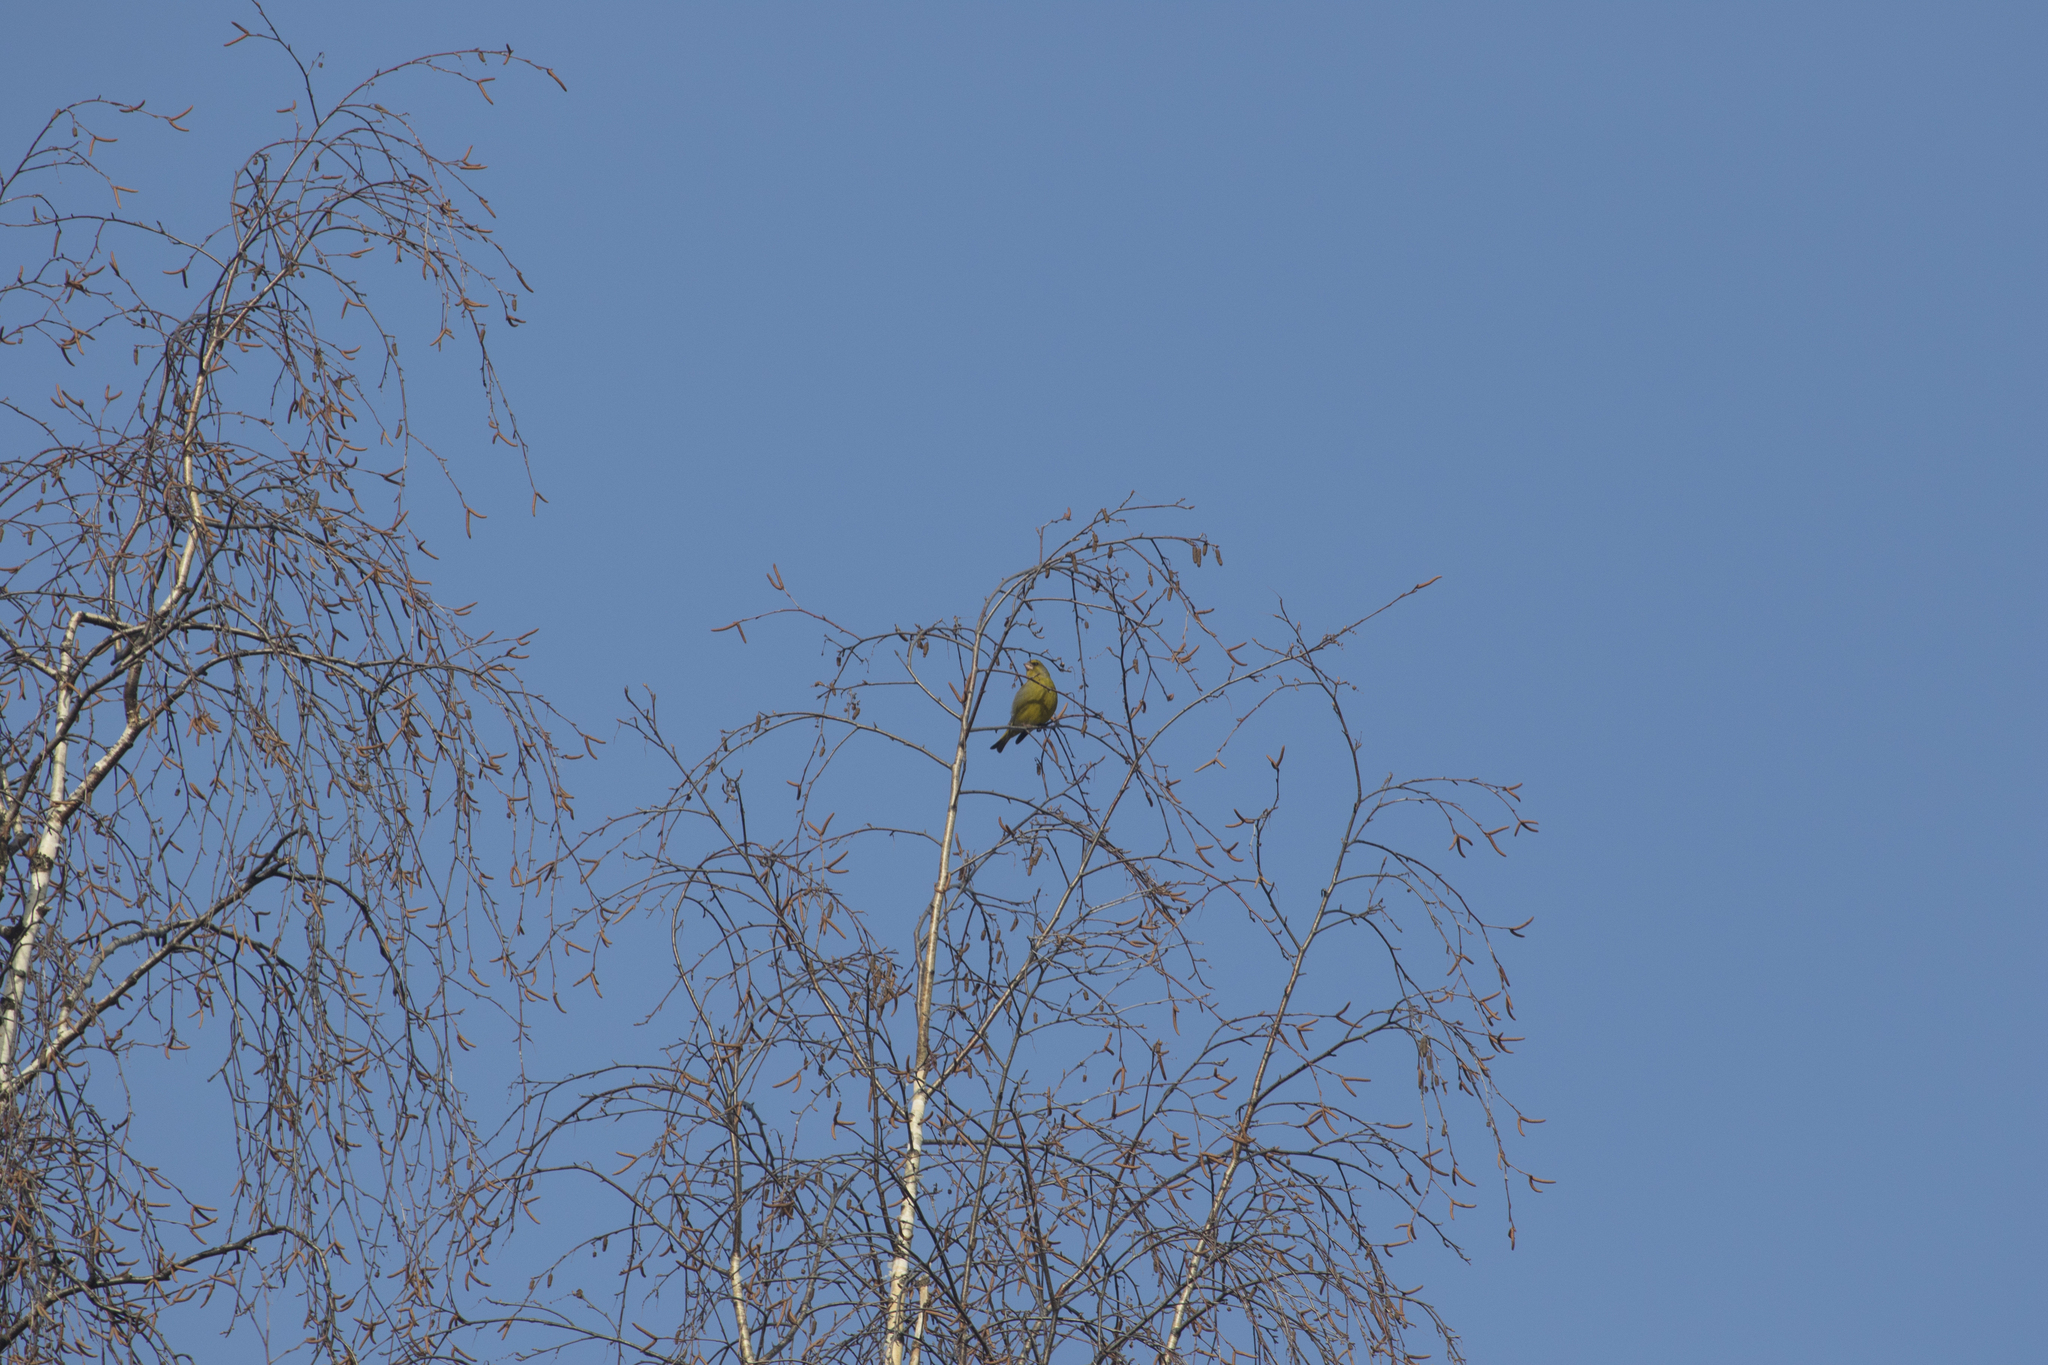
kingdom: Plantae
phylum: Tracheophyta
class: Liliopsida
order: Poales
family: Poaceae
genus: Chloris
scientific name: Chloris chloris
